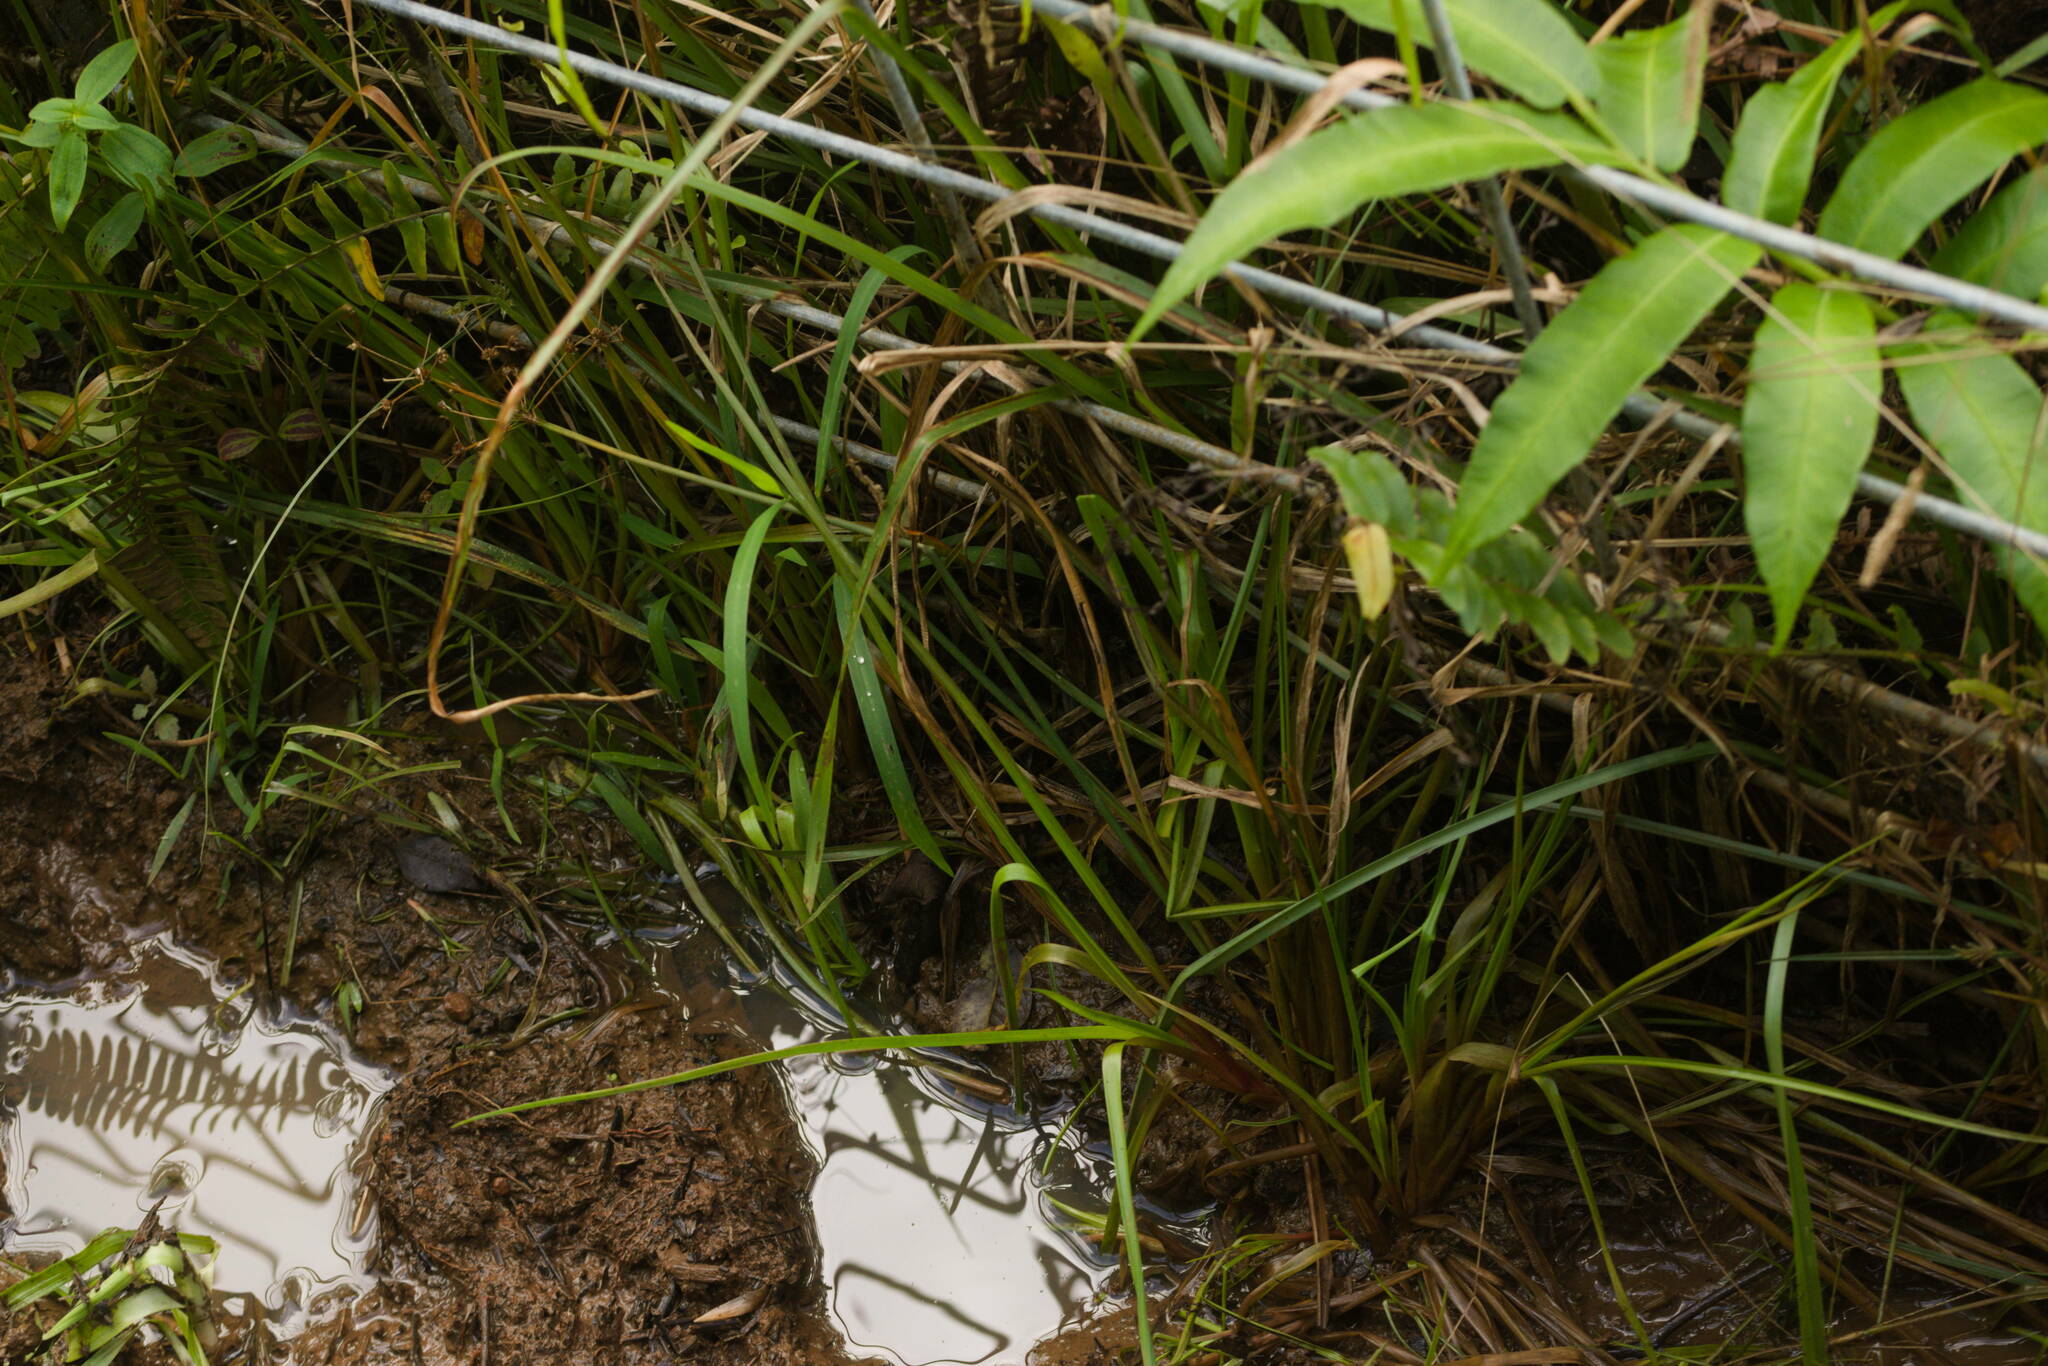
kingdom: Plantae
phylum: Tracheophyta
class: Liliopsida
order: Poales
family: Juncaceae
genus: Juncus
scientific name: Juncus planifolius
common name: Broadleaf rush
